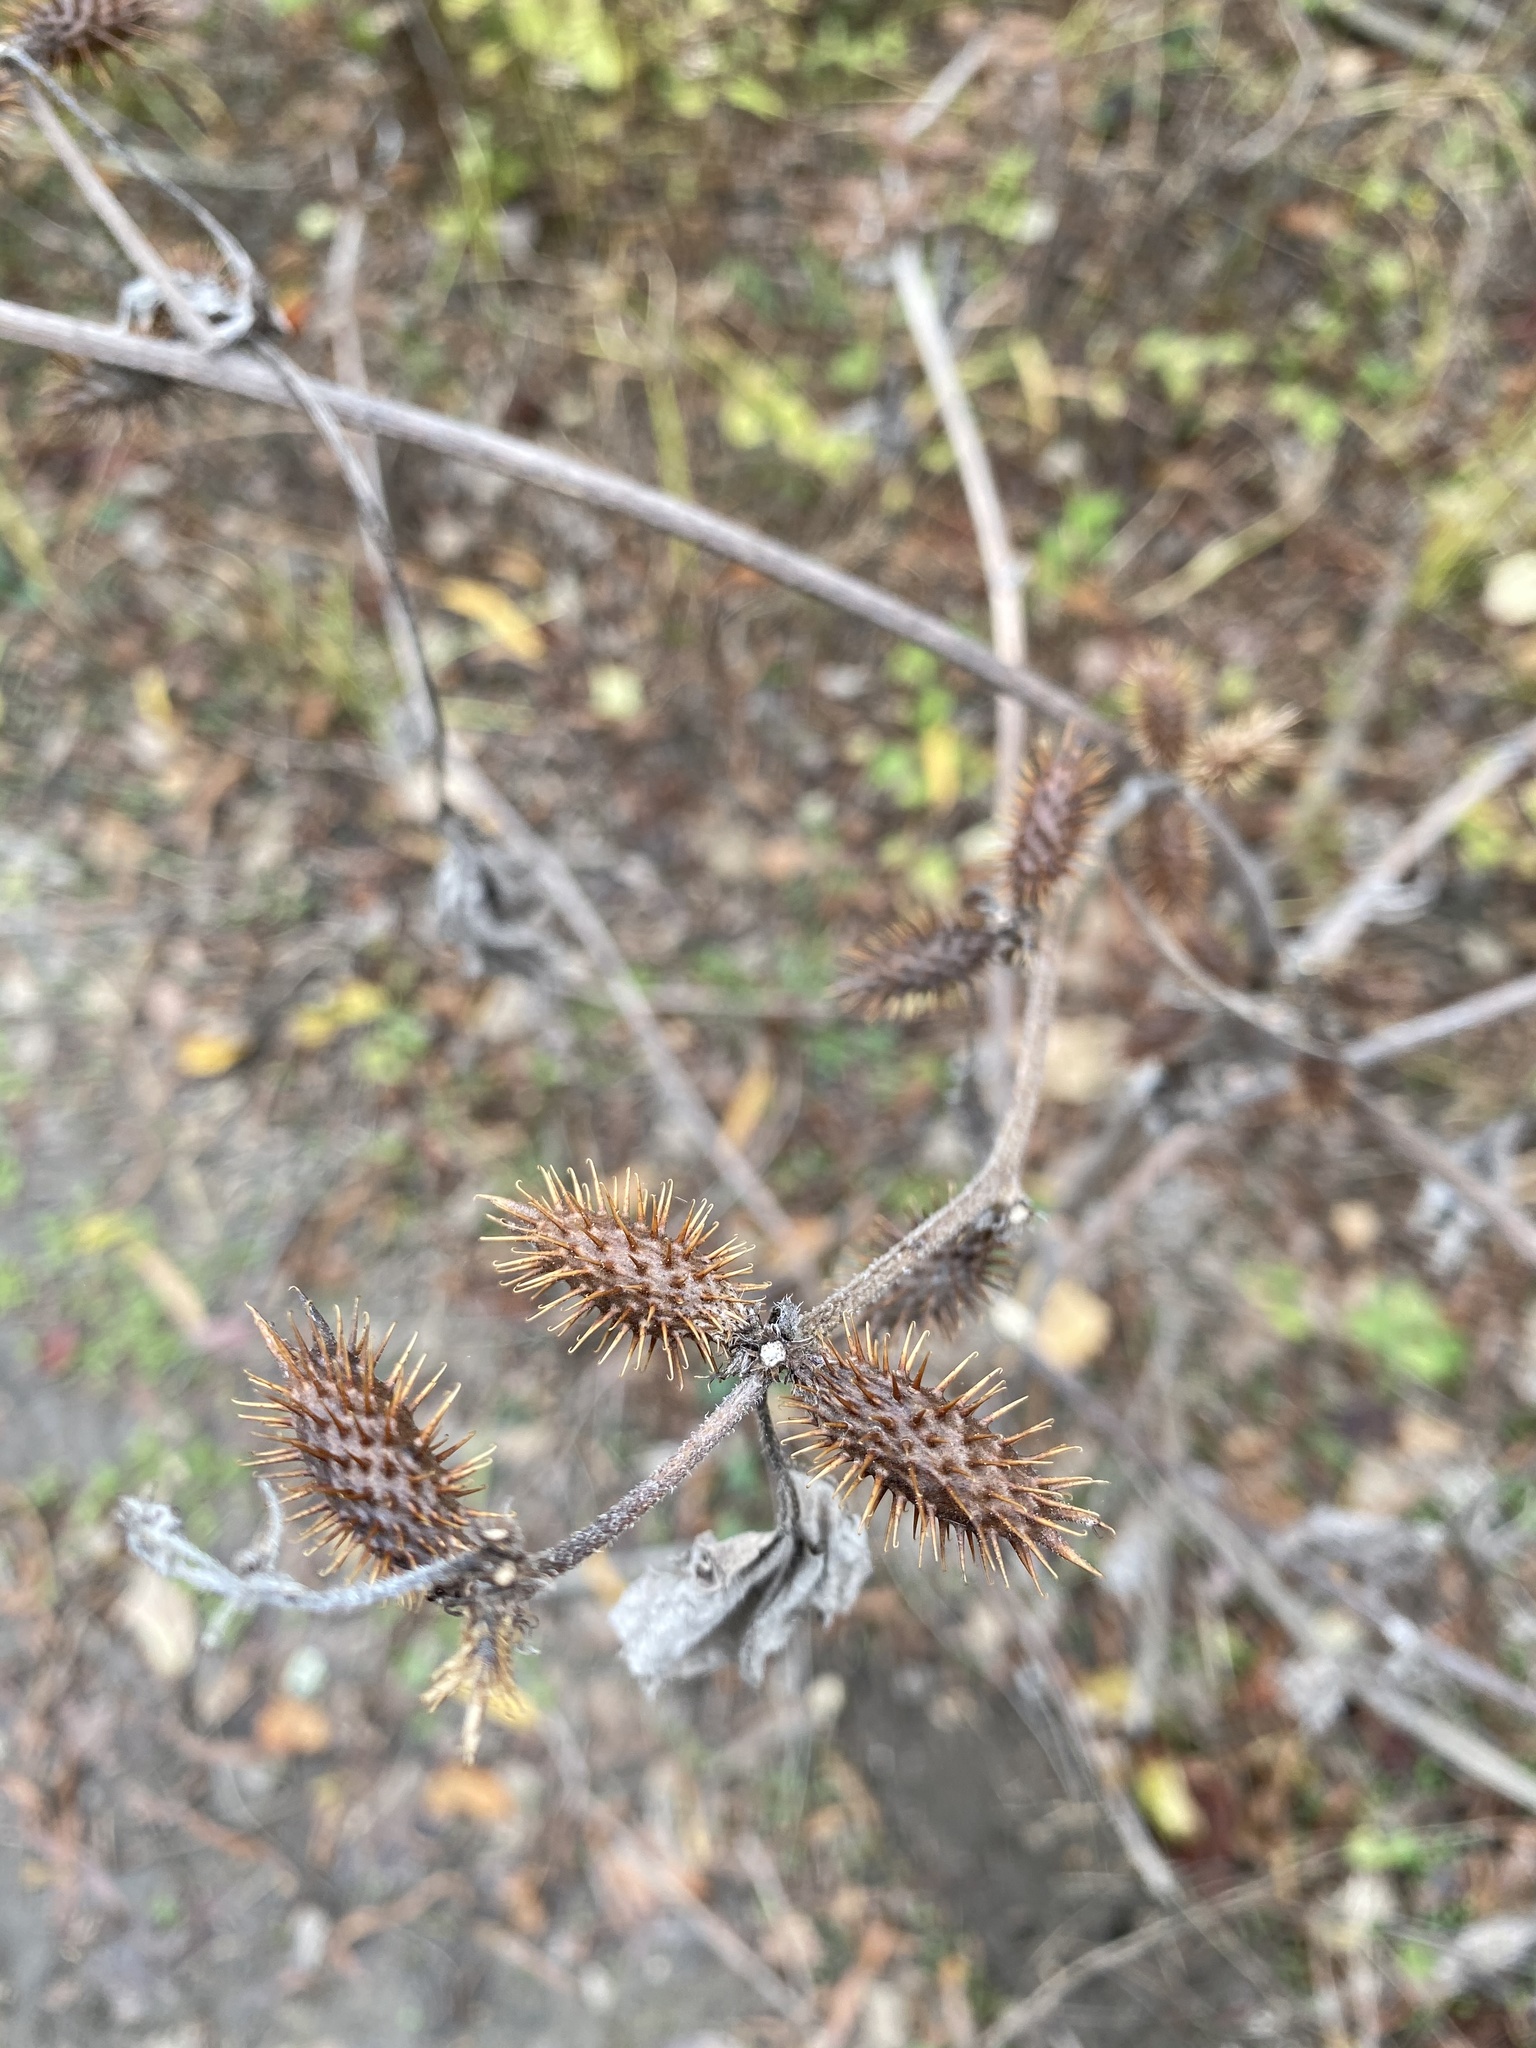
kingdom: Plantae
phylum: Tracheophyta
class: Magnoliopsida
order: Asterales
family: Asteraceae
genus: Xanthium
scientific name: Xanthium strumarium
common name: Rough cocklebur
